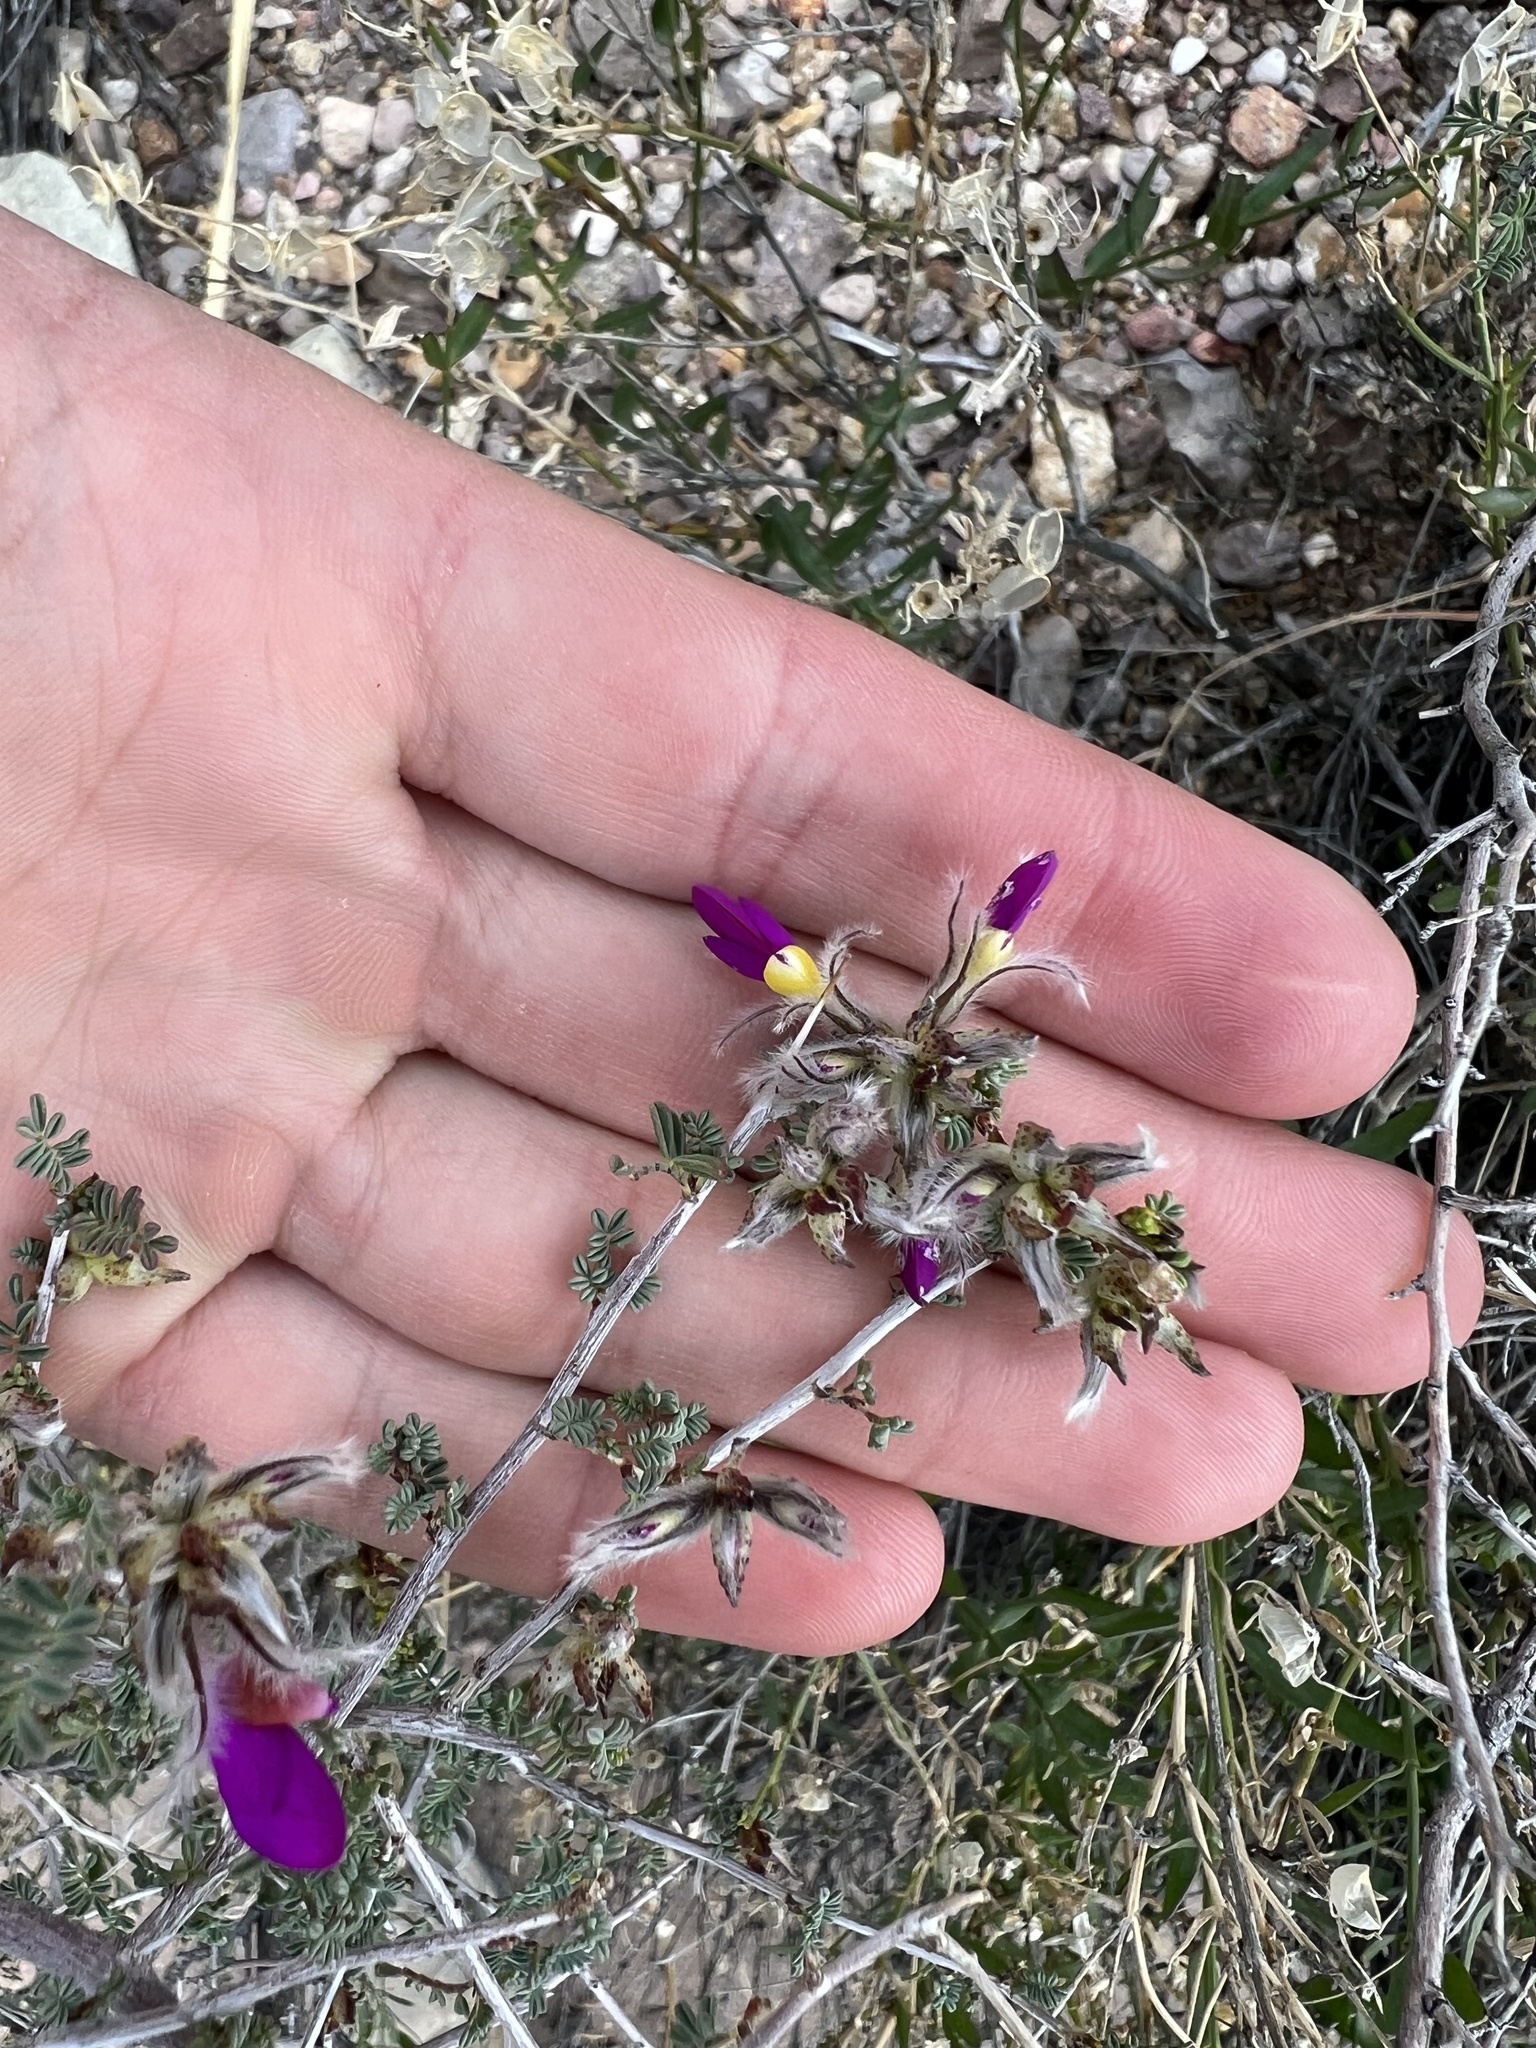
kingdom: Plantae
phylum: Tracheophyta
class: Magnoliopsida
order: Fabales
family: Fabaceae
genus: Dalea
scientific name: Dalea formosa
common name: Feather-plume dalea
